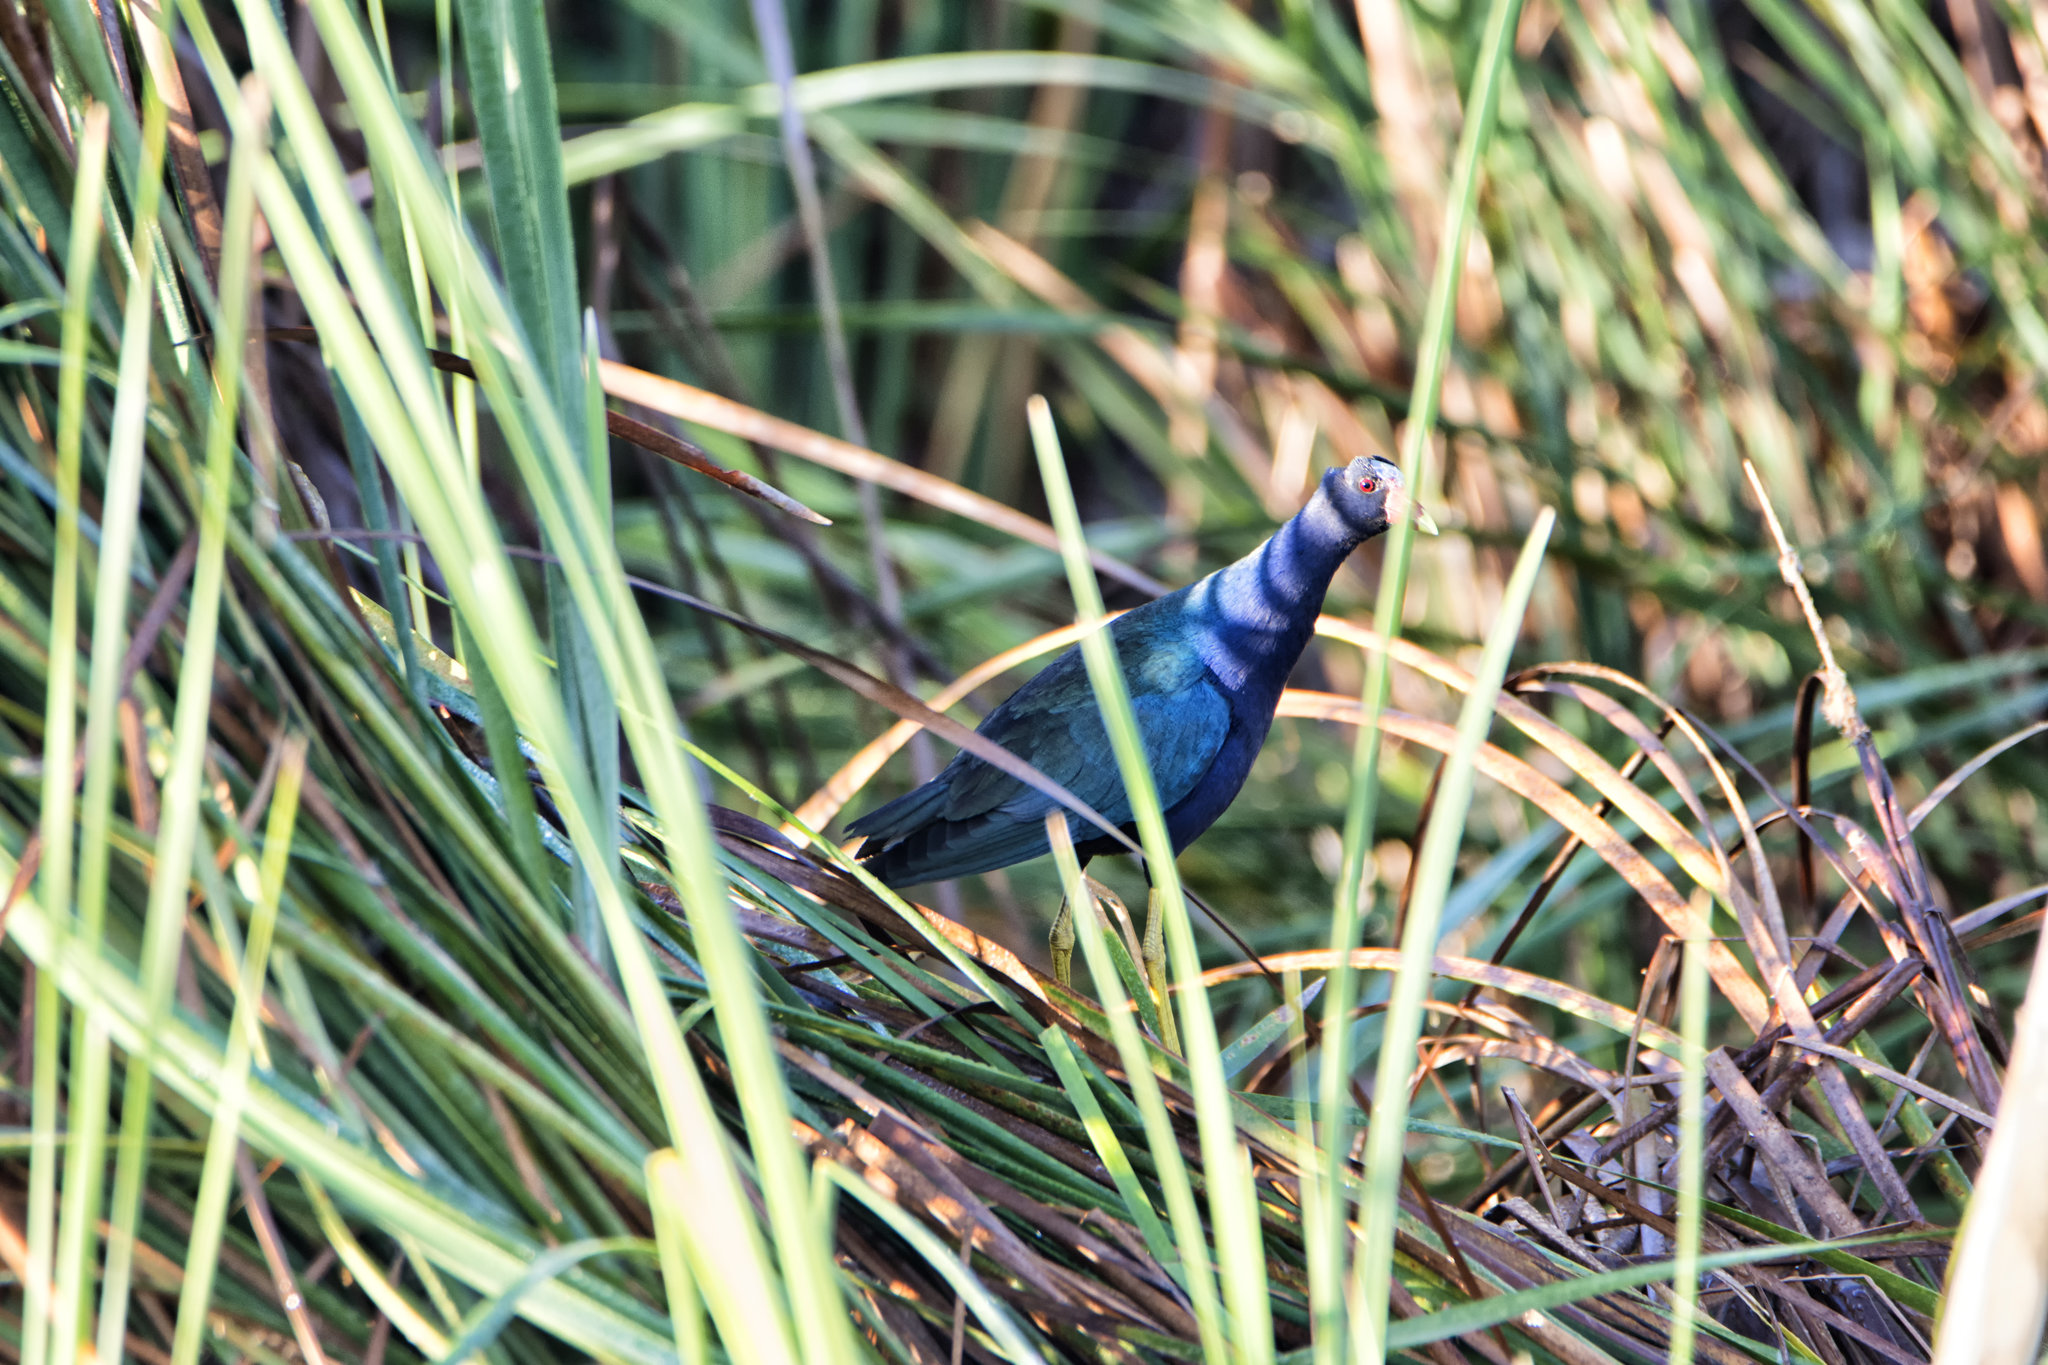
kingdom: Animalia
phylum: Chordata
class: Aves
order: Gruiformes
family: Rallidae
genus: Porphyrio
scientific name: Porphyrio martinica
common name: Purple gallinule
